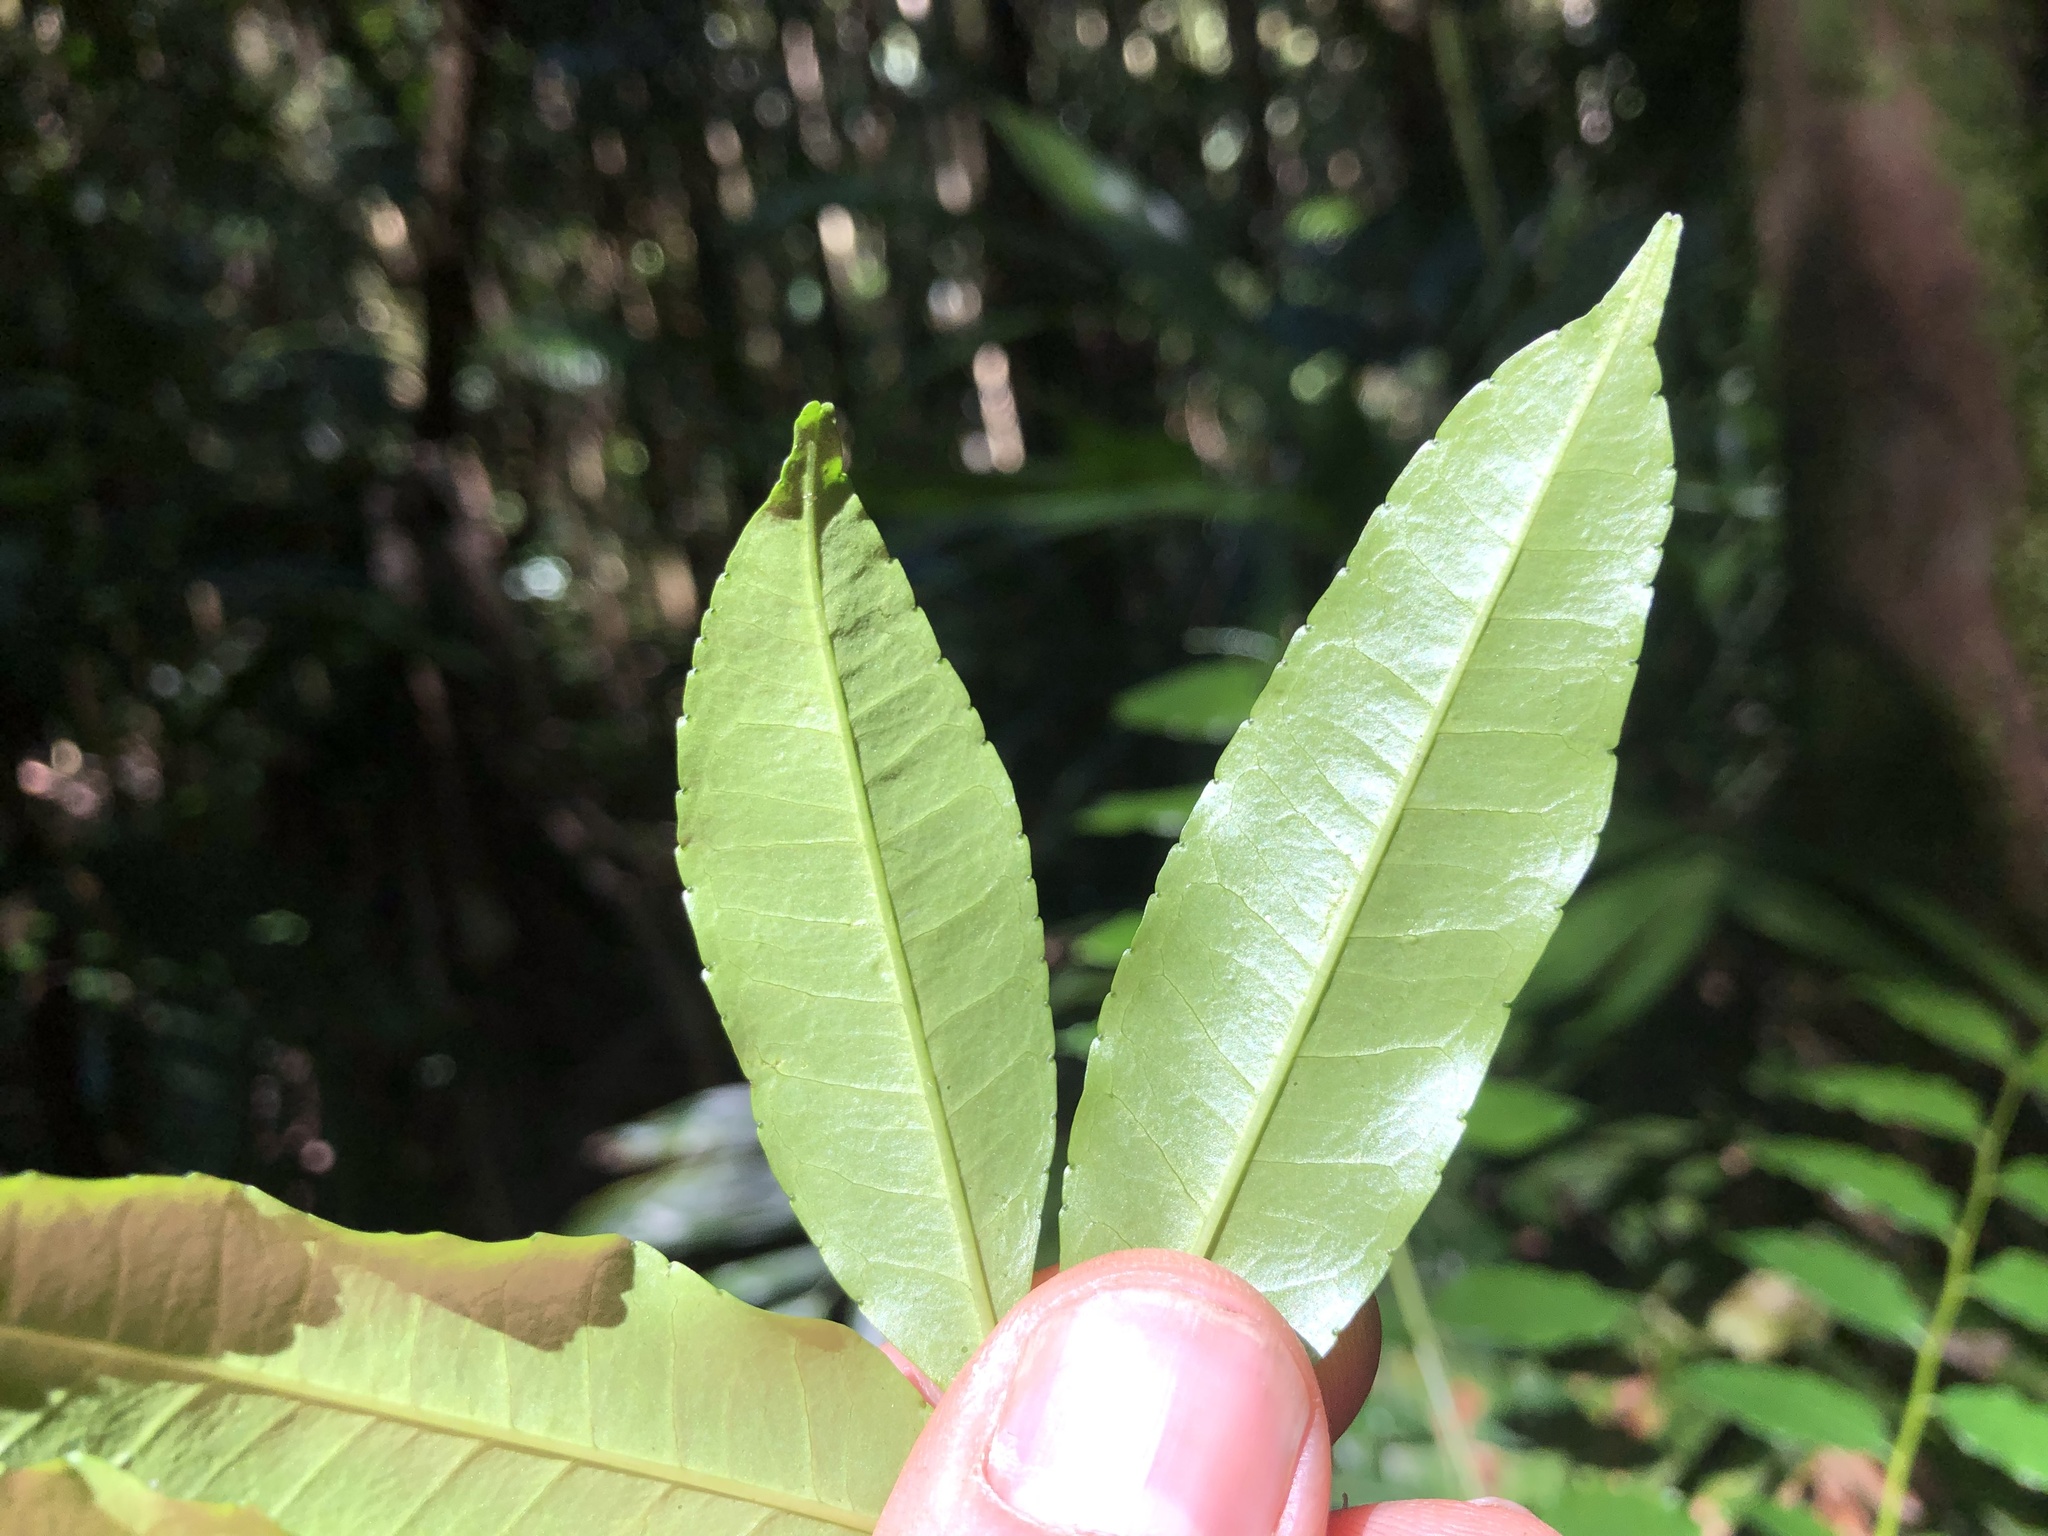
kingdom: Plantae
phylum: Tracheophyta
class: Magnoliopsida
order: Sapindales
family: Rutaceae
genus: Zanthoxylum
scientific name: Zanthoxylum brachyacanthum
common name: Satinwood
